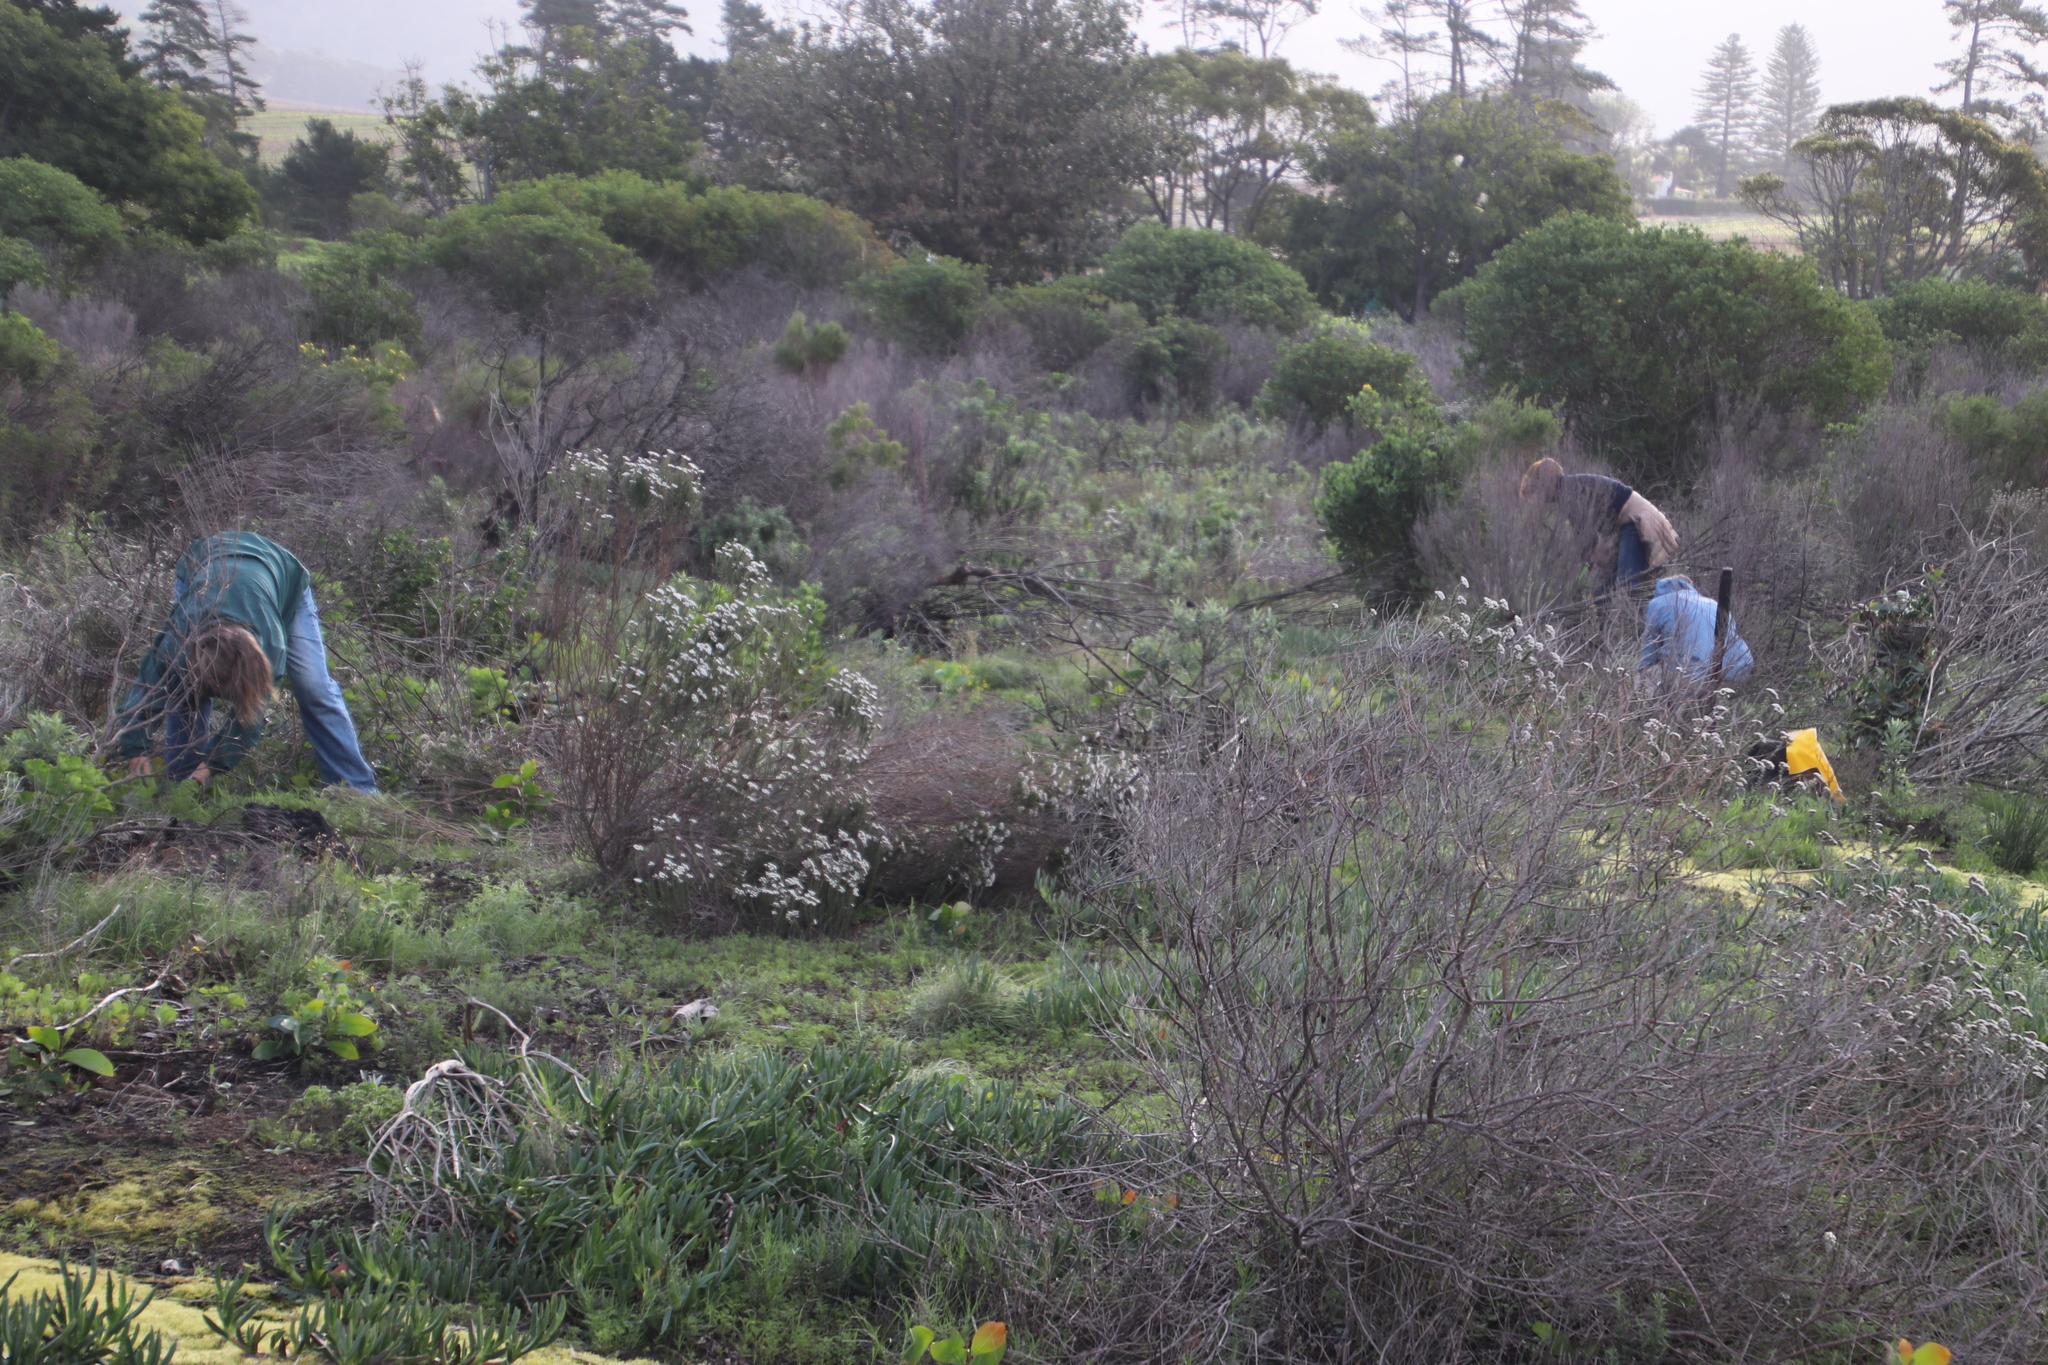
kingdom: Plantae
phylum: Tracheophyta
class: Magnoliopsida
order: Asterales
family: Asteraceae
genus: Metalasia
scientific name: Metalasia densa
